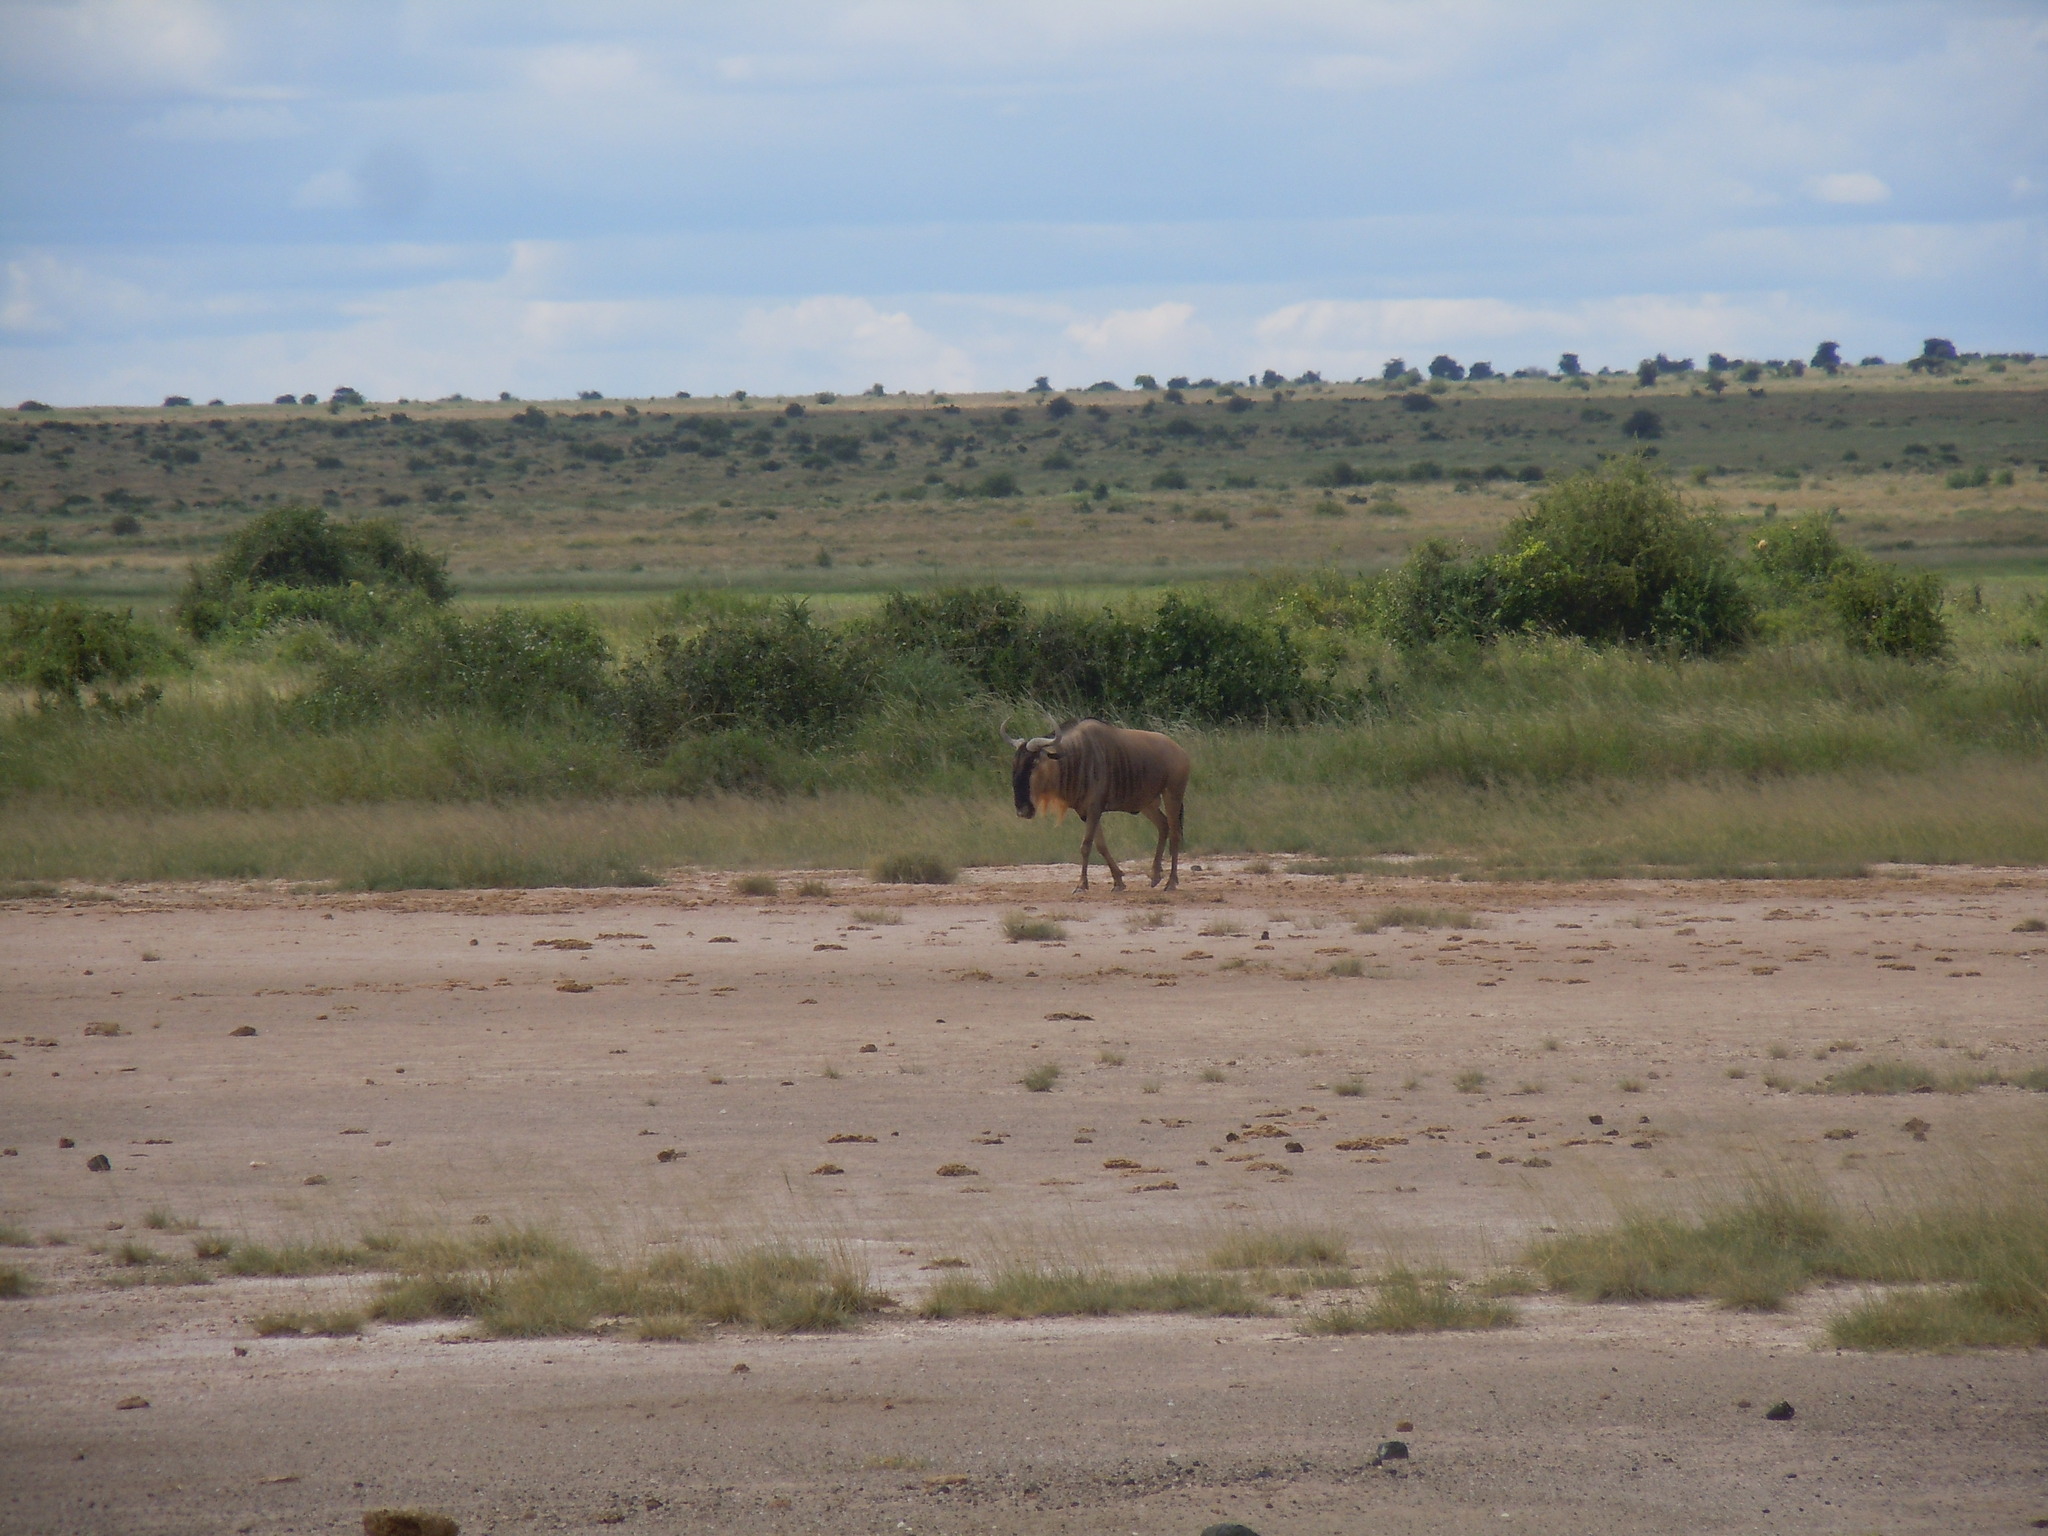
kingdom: Animalia
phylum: Chordata
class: Mammalia
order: Artiodactyla
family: Bovidae
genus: Connochaetes
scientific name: Connochaetes taurinus
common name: Blue wildebeest
